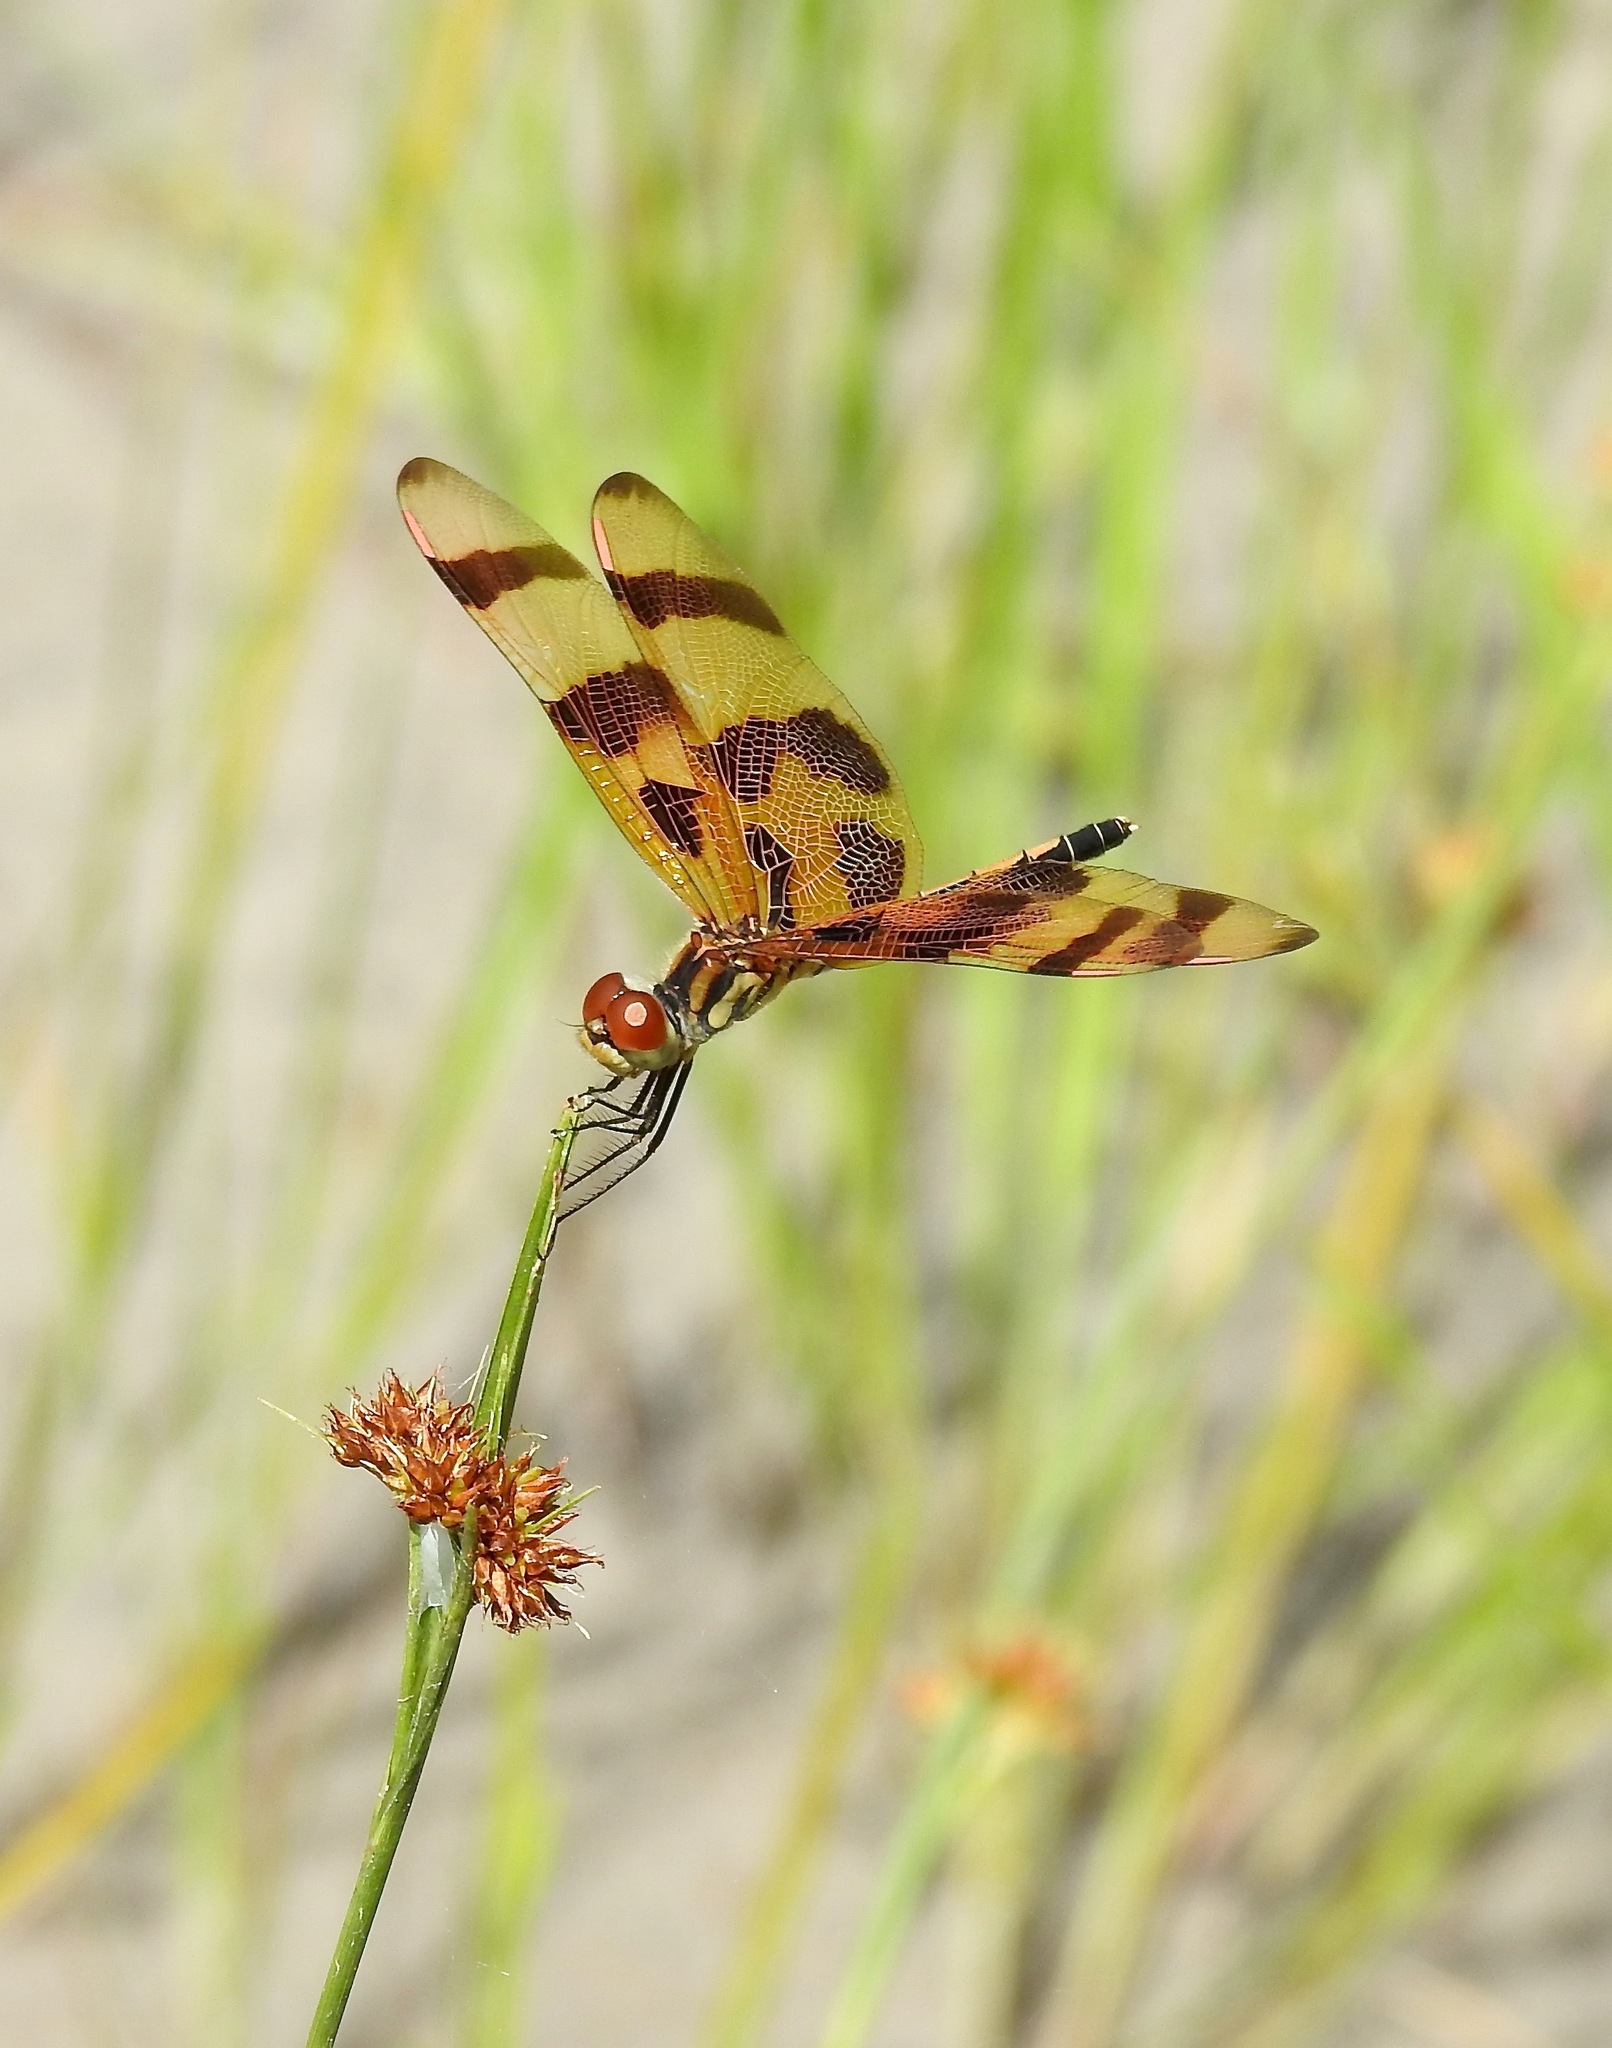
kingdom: Animalia
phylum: Arthropoda
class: Insecta
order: Odonata
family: Libellulidae
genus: Celithemis
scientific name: Celithemis eponina
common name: Halloween pennant
